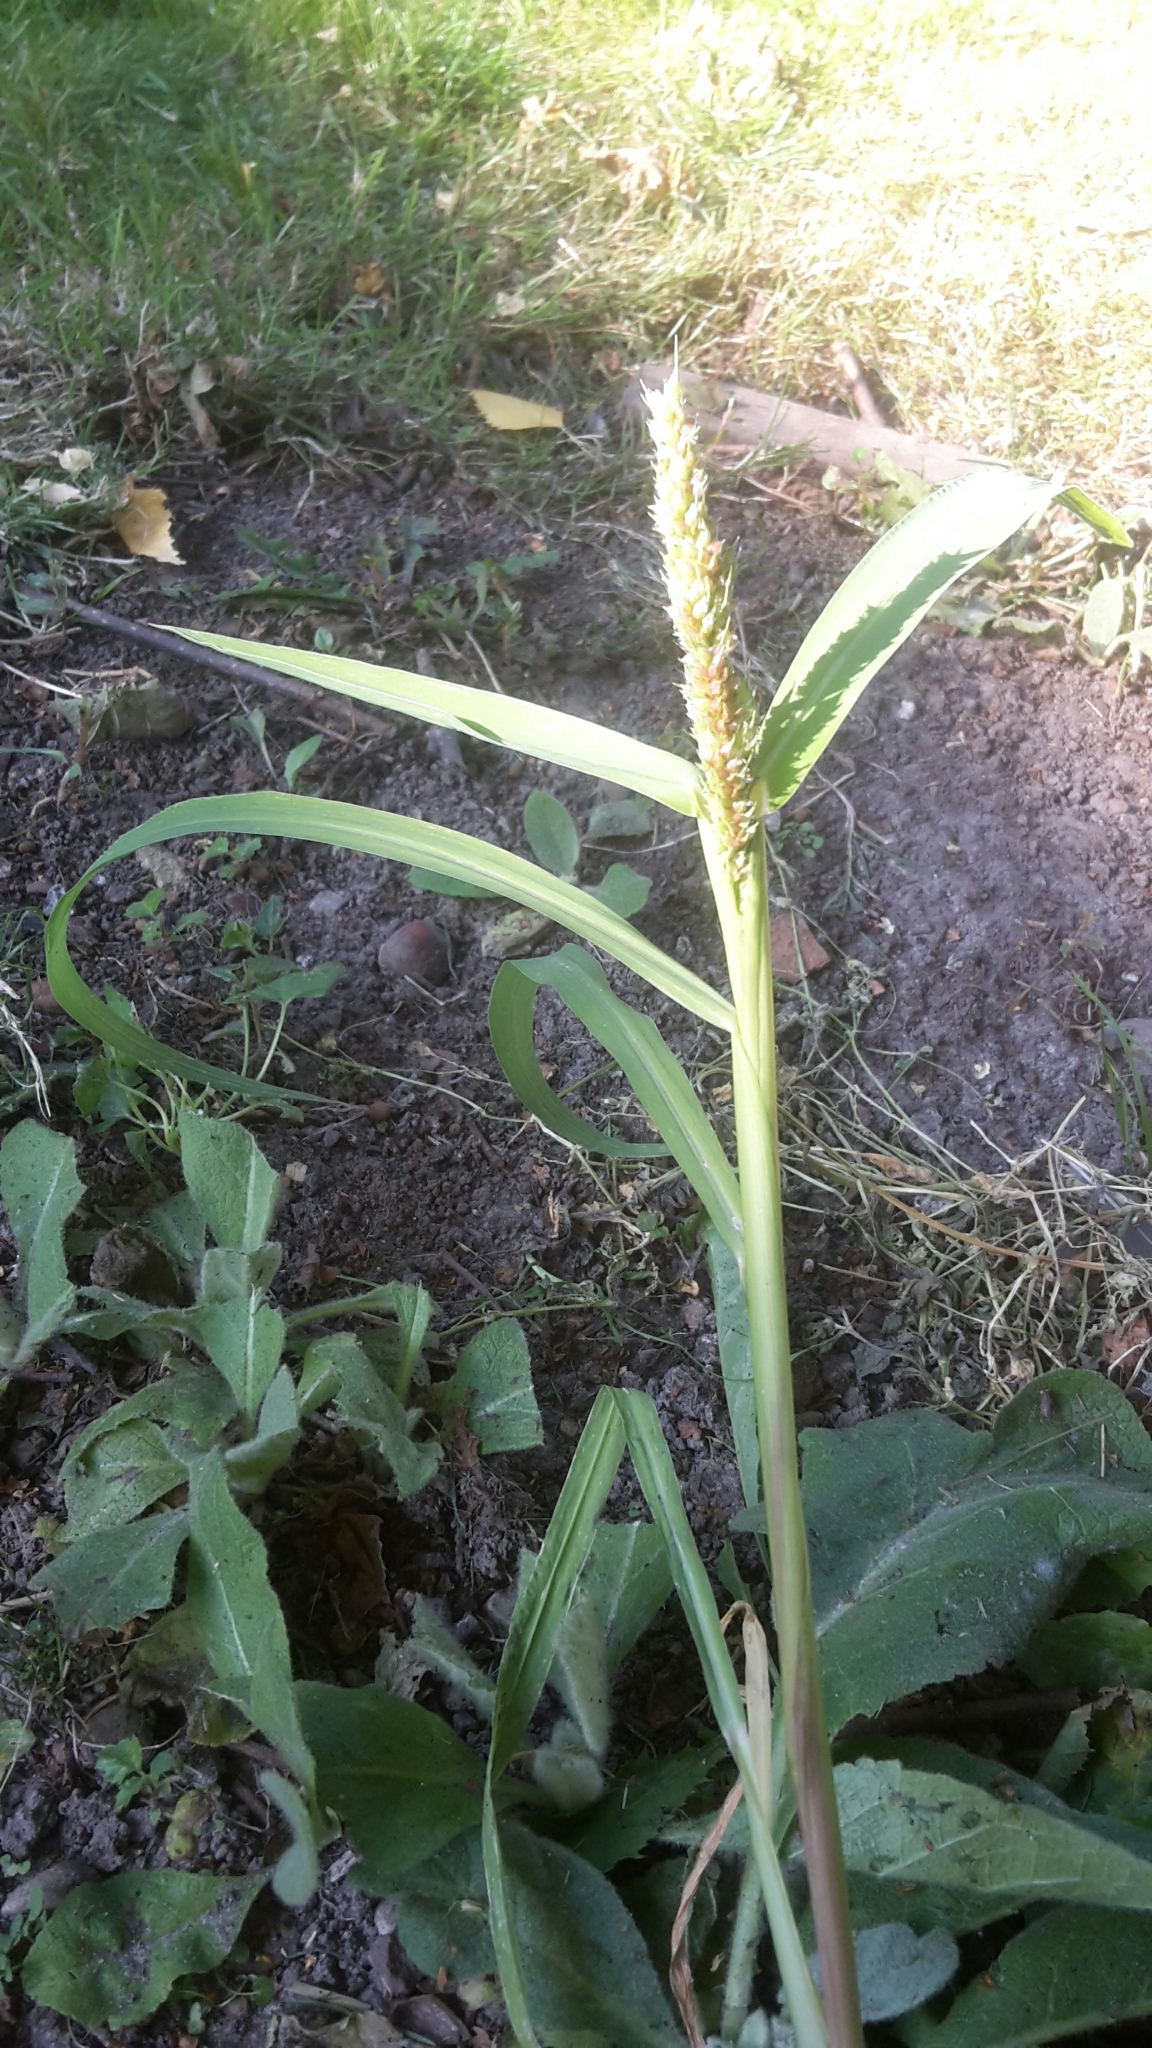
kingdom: Plantae
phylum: Tracheophyta
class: Liliopsida
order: Poales
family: Poaceae
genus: Echinochloa
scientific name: Echinochloa crus-galli
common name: Cockspur
